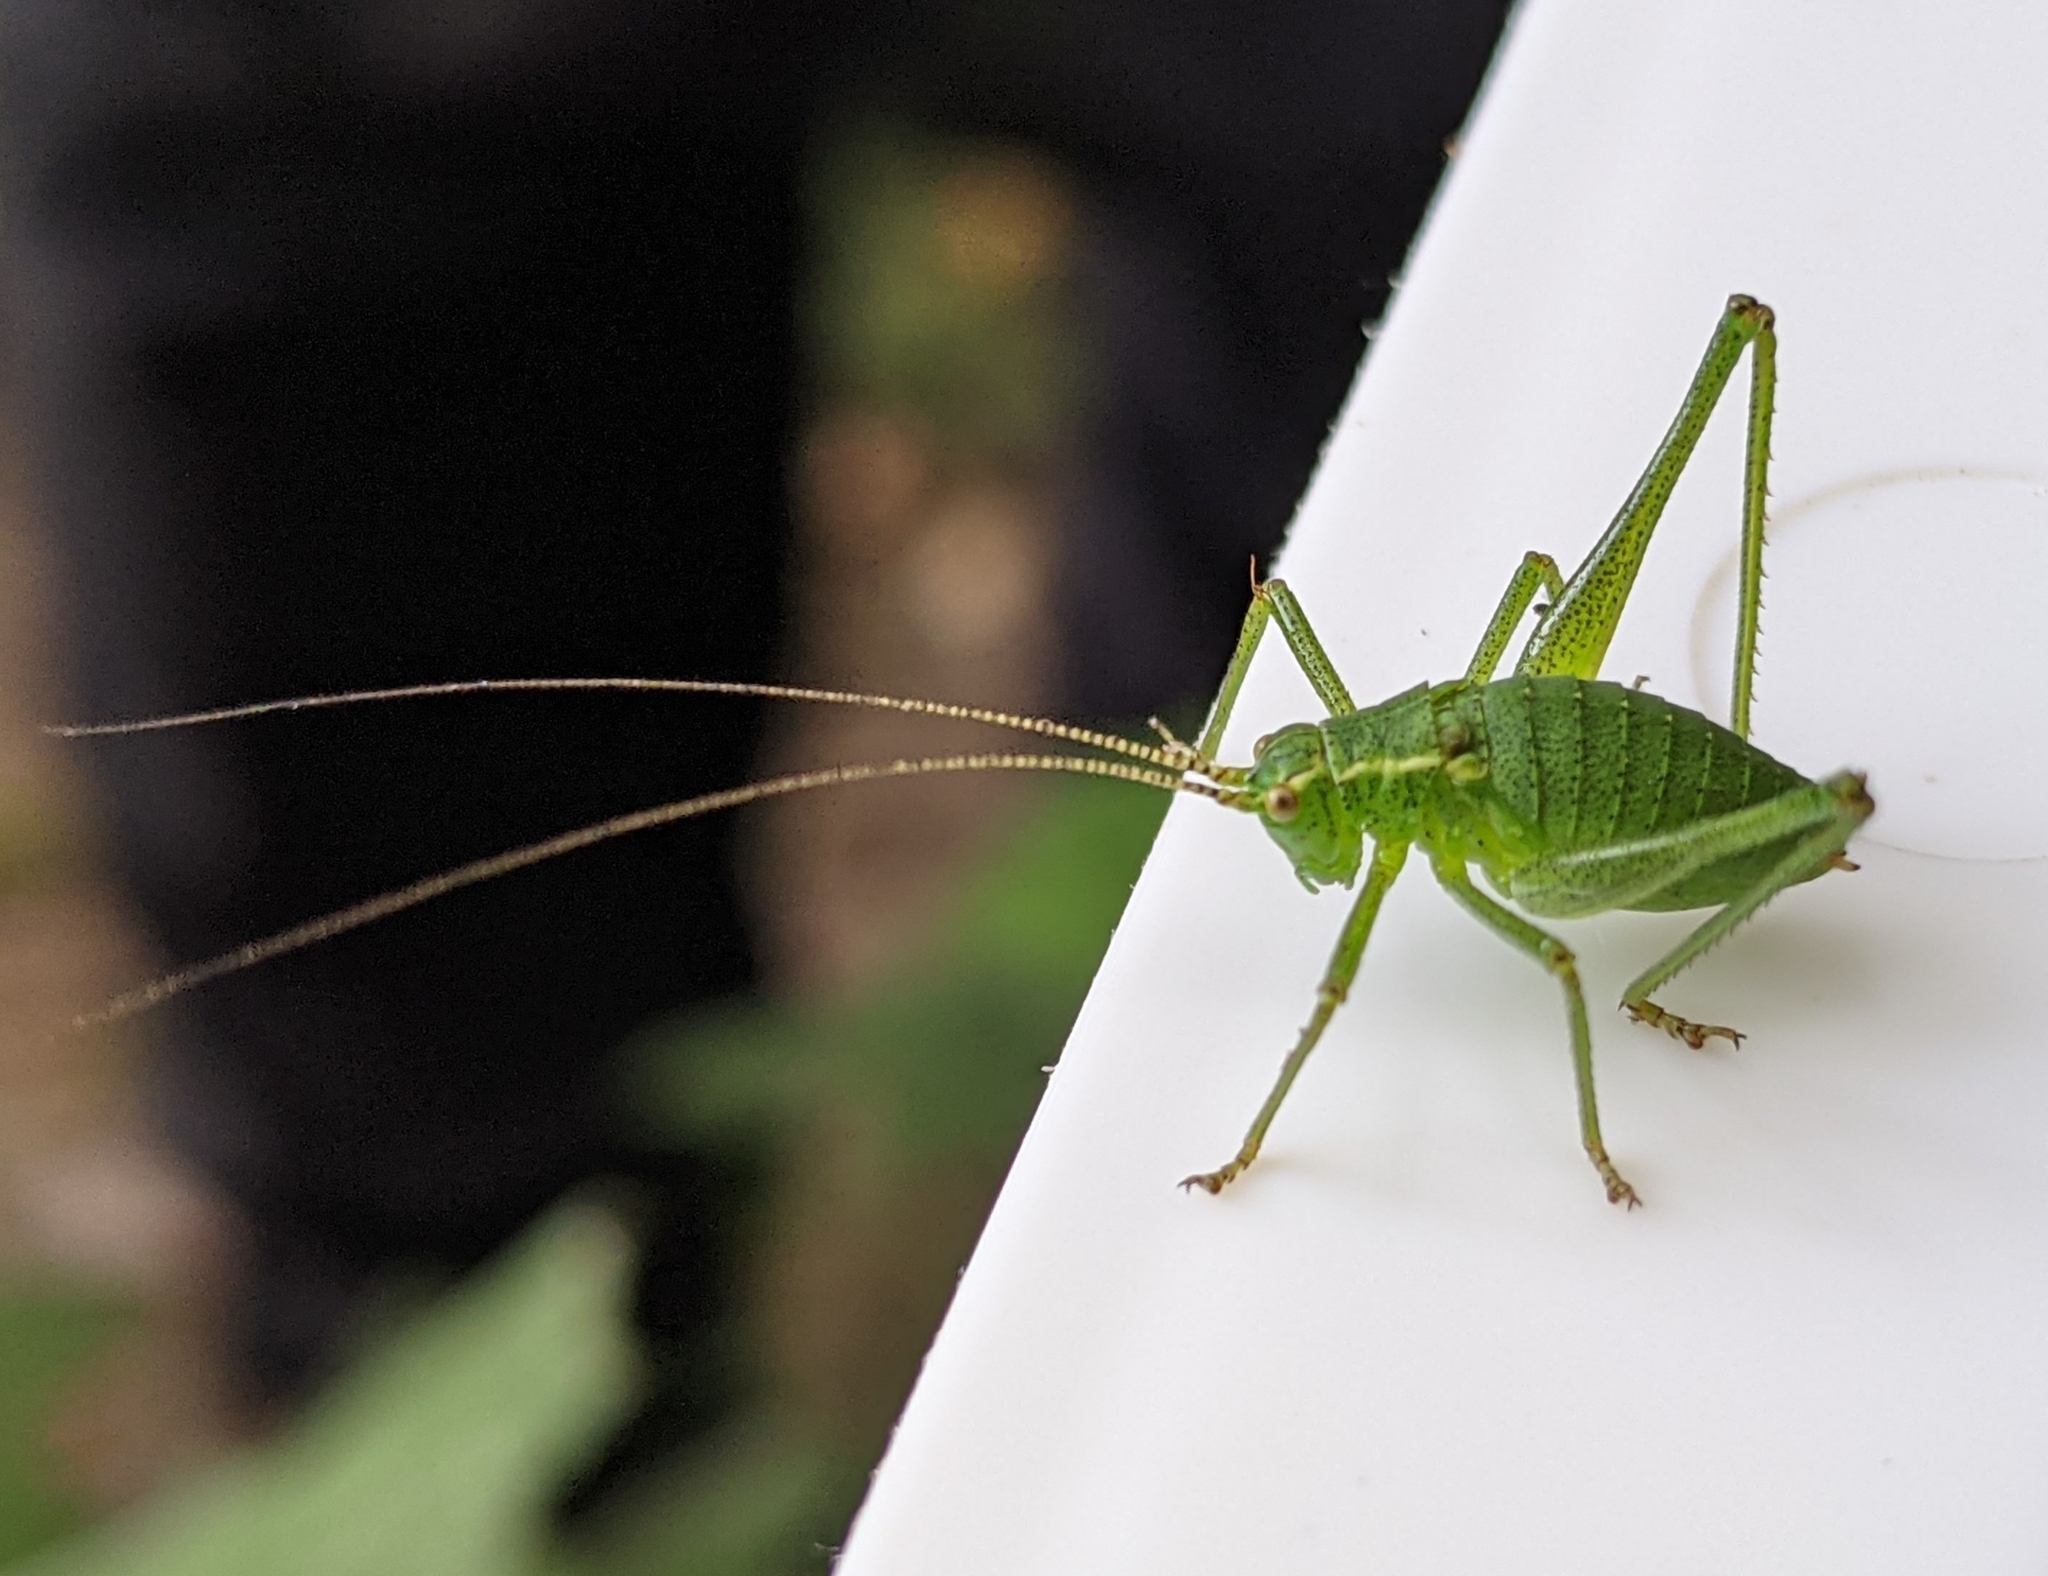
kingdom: Animalia
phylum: Arthropoda
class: Insecta
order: Orthoptera
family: Tettigoniidae
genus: Leptophyes
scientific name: Leptophyes punctatissima
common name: Speckled bush-cricket
